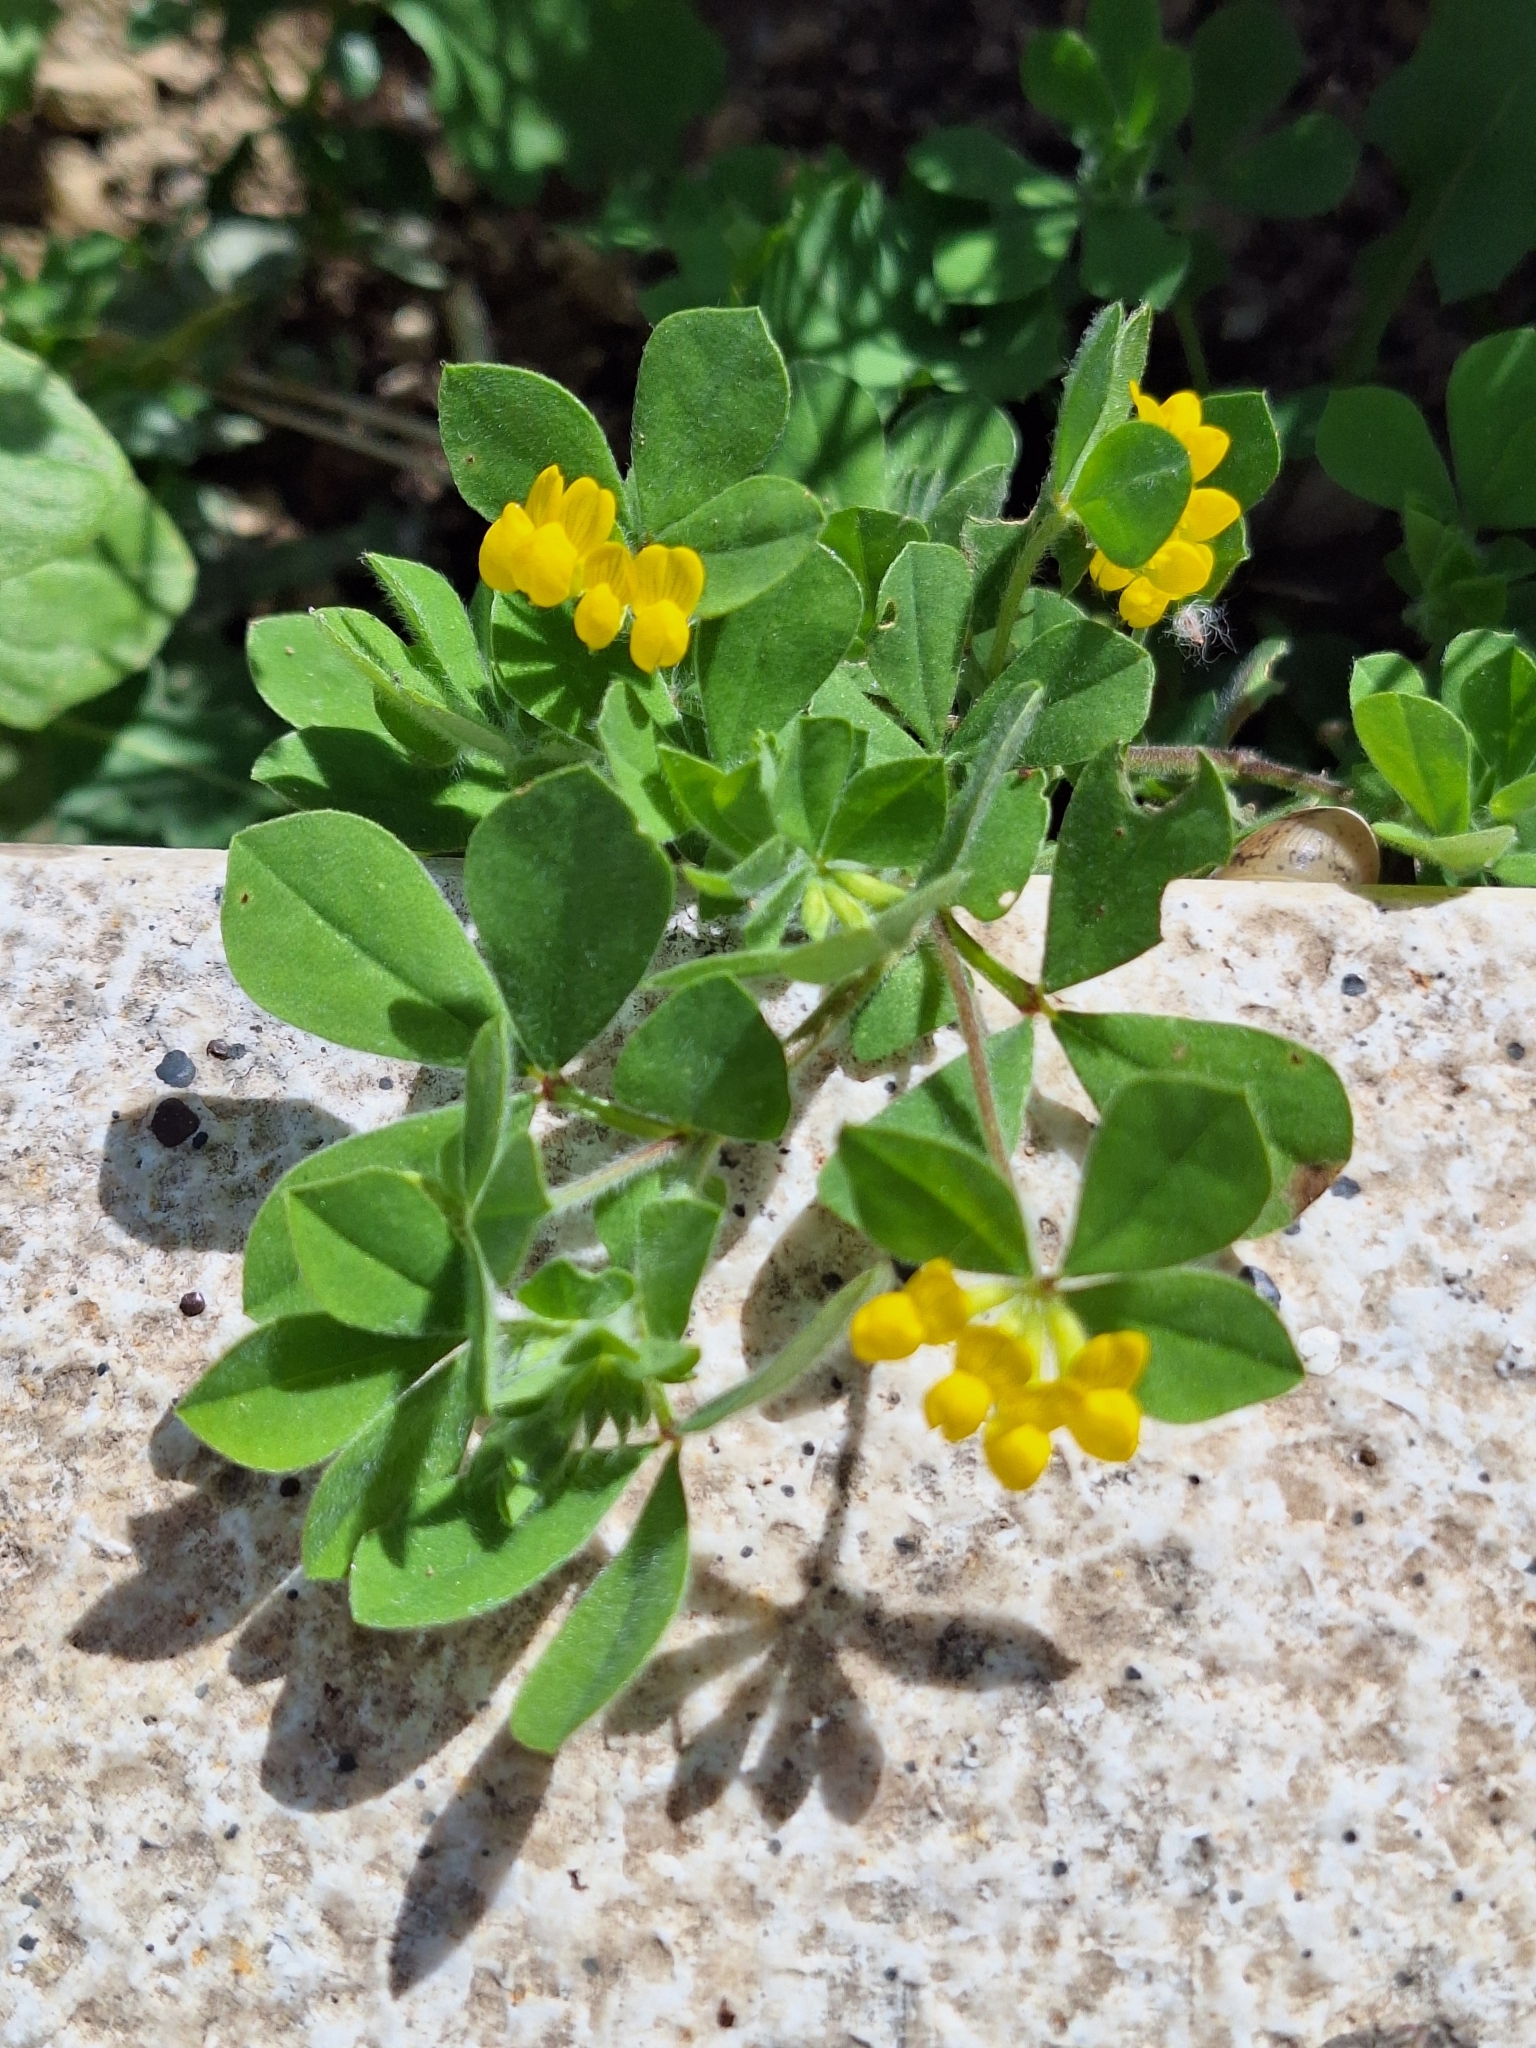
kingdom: Plantae
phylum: Tracheophyta
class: Magnoliopsida
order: Fabales
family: Fabaceae
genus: Lotus
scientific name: Lotus ornithopodioides
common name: Southern bird's-foot trefoil
